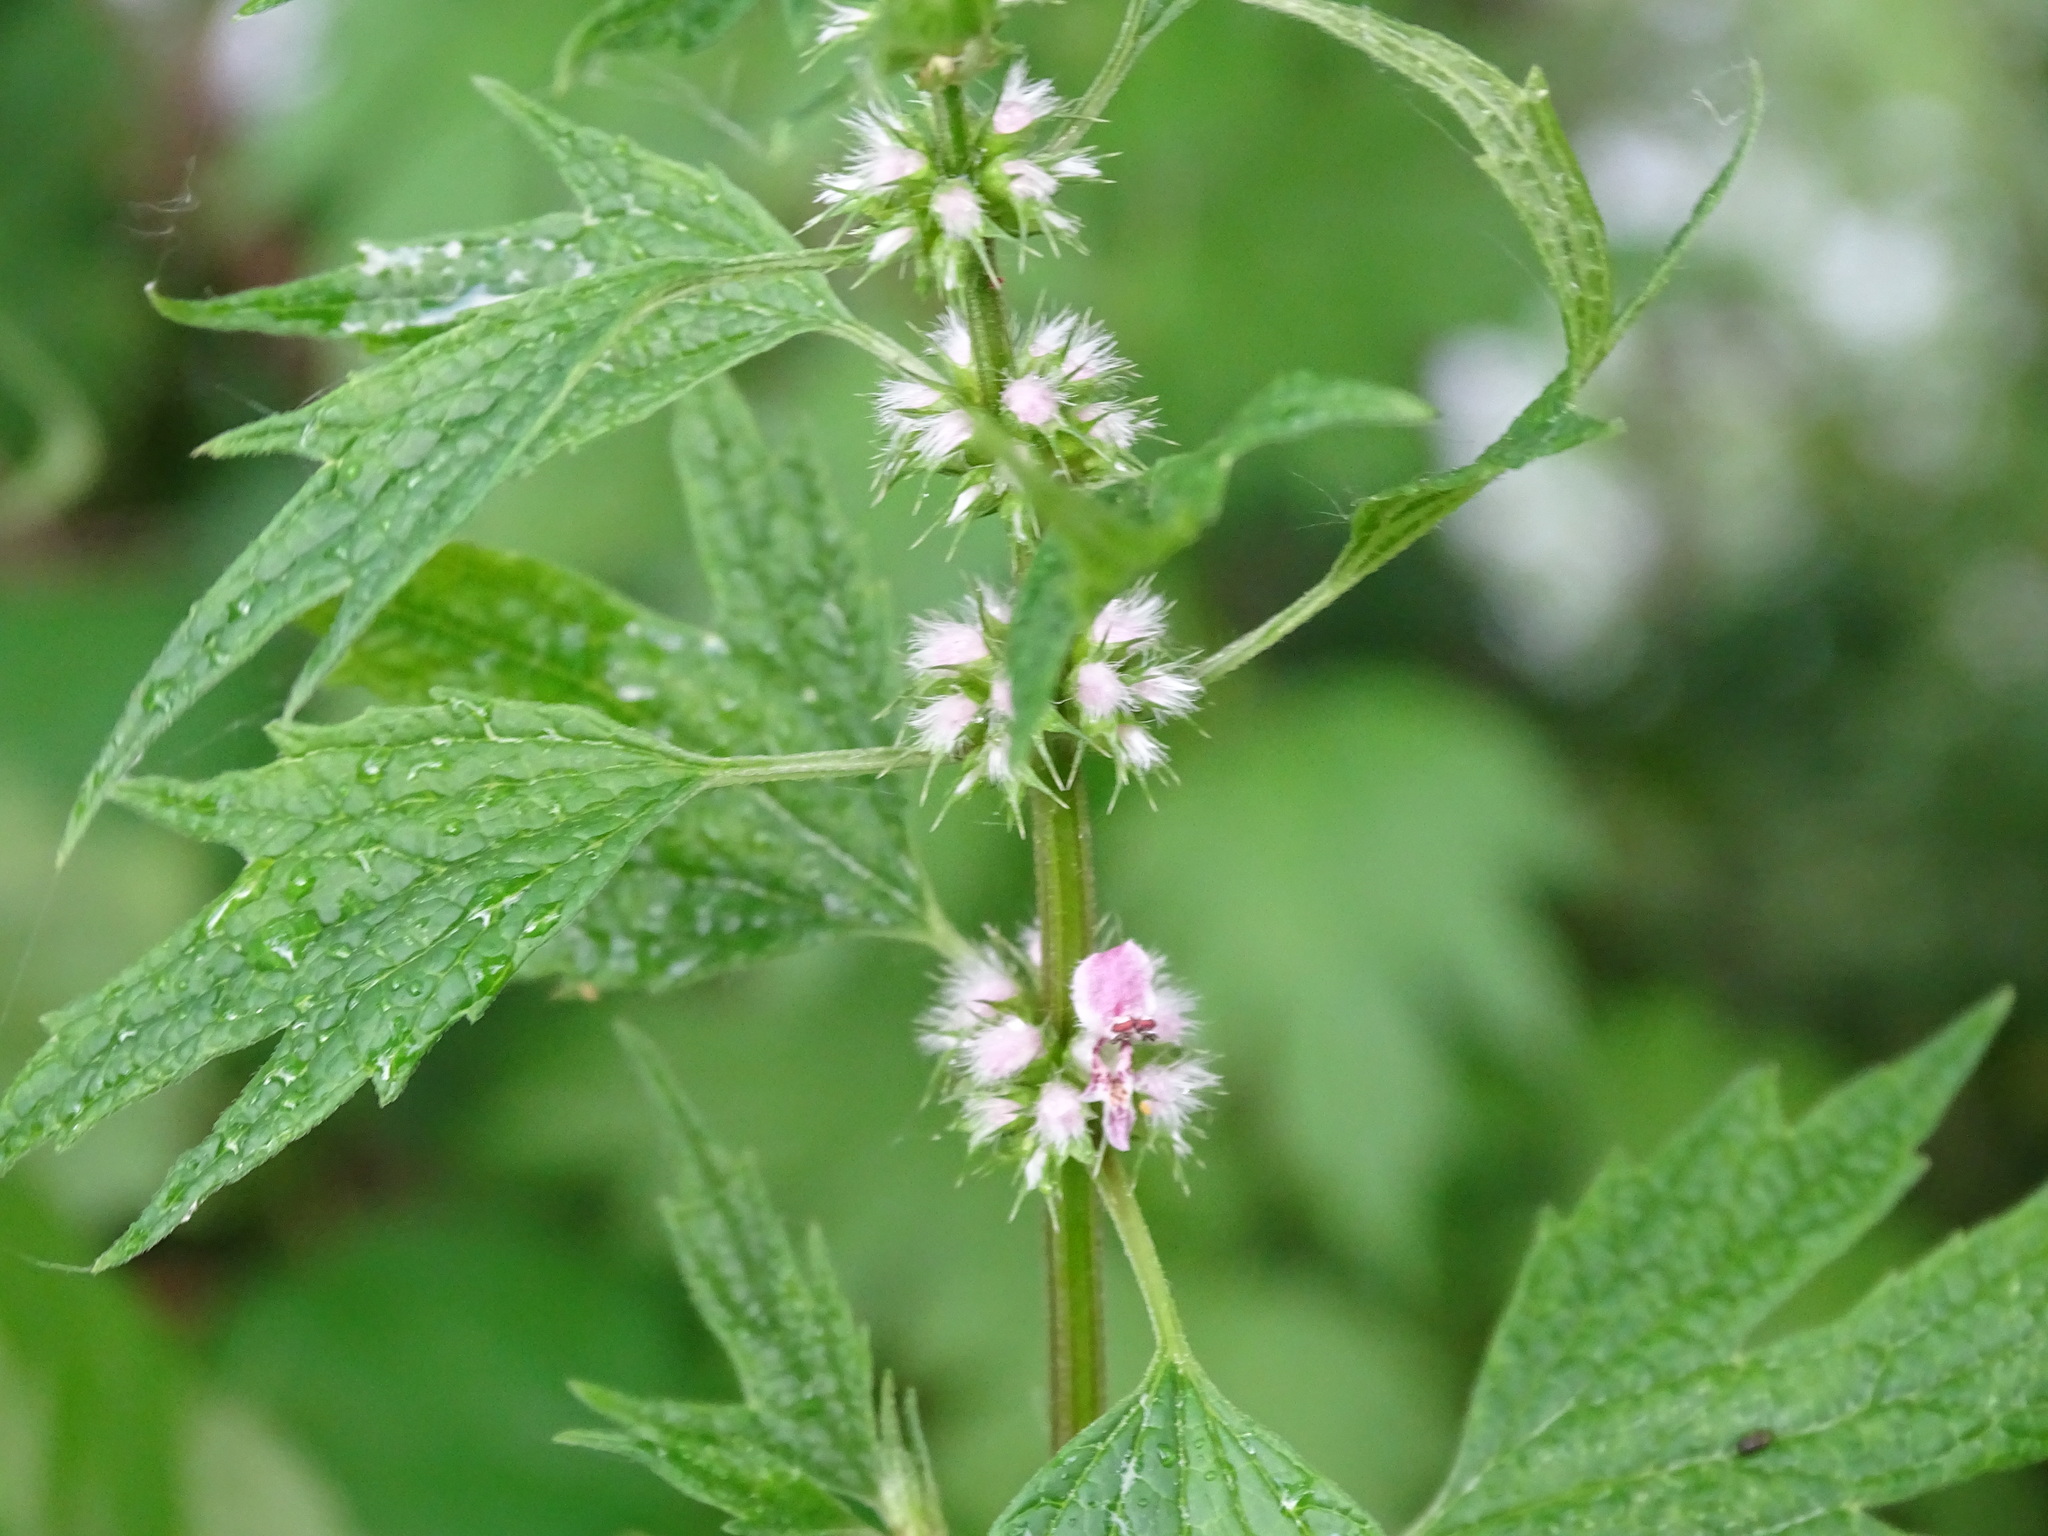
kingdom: Plantae
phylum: Tracheophyta
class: Magnoliopsida
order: Lamiales
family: Lamiaceae
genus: Leonurus
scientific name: Leonurus cardiaca
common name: Motherwort
